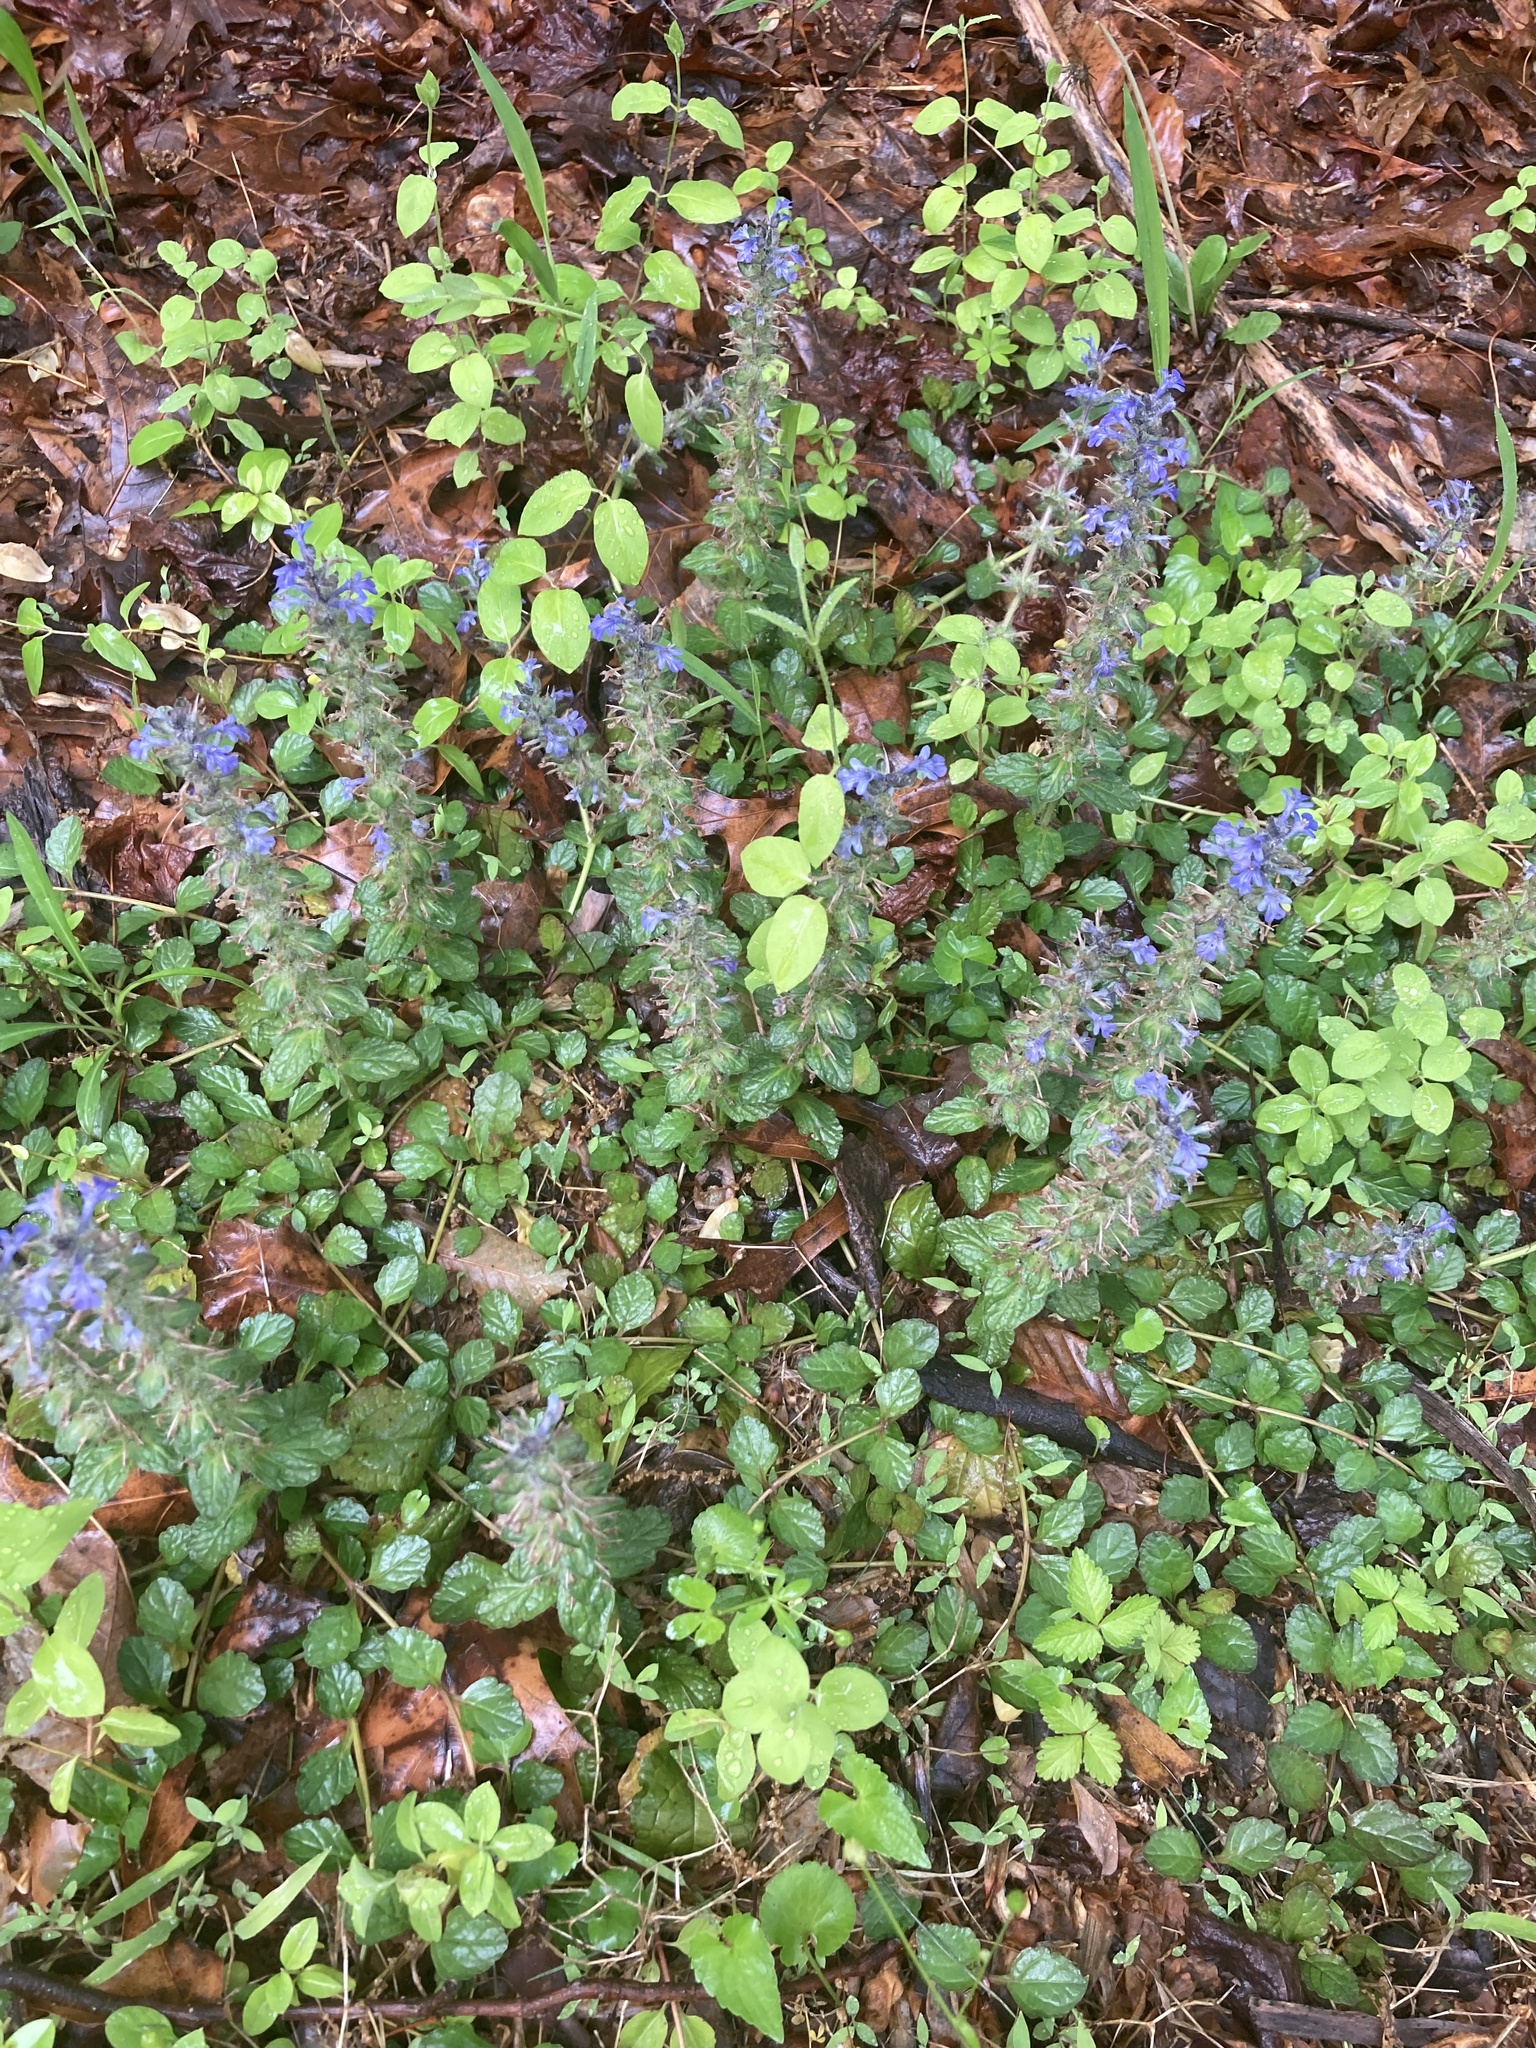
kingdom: Plantae
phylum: Tracheophyta
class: Magnoliopsida
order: Lamiales
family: Lamiaceae
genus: Ajuga
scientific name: Ajuga reptans
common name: Bugle
